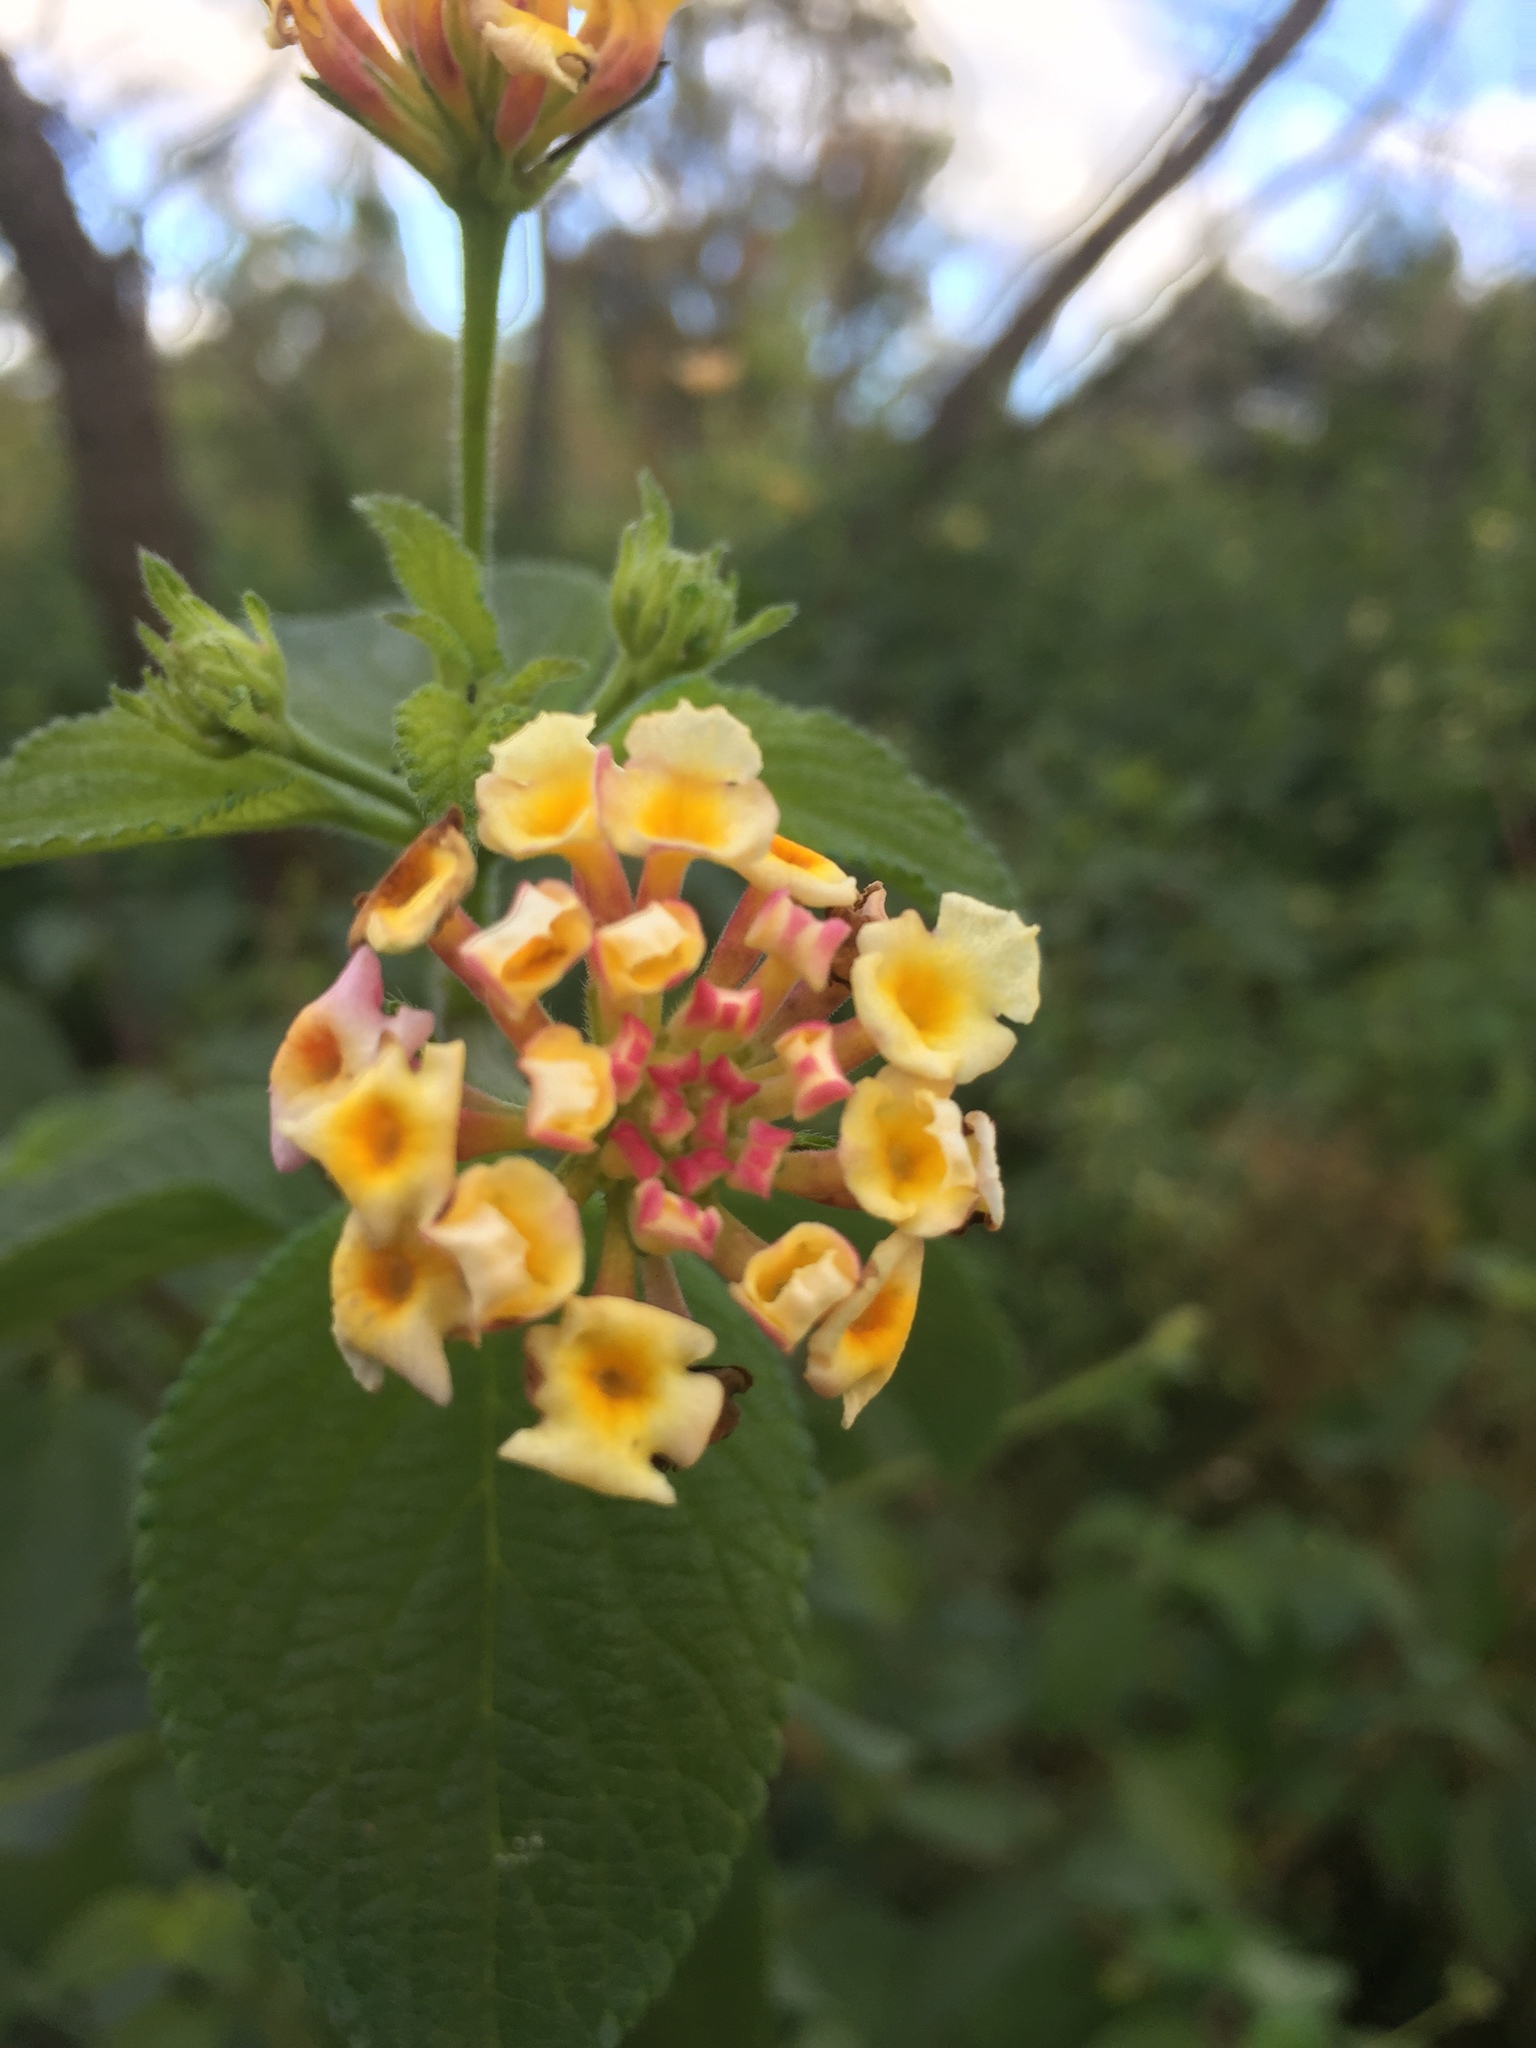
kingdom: Plantae
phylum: Tracheophyta
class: Magnoliopsida
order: Lamiales
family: Verbenaceae
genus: Lantana
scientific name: Lantana camara
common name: Lantana
